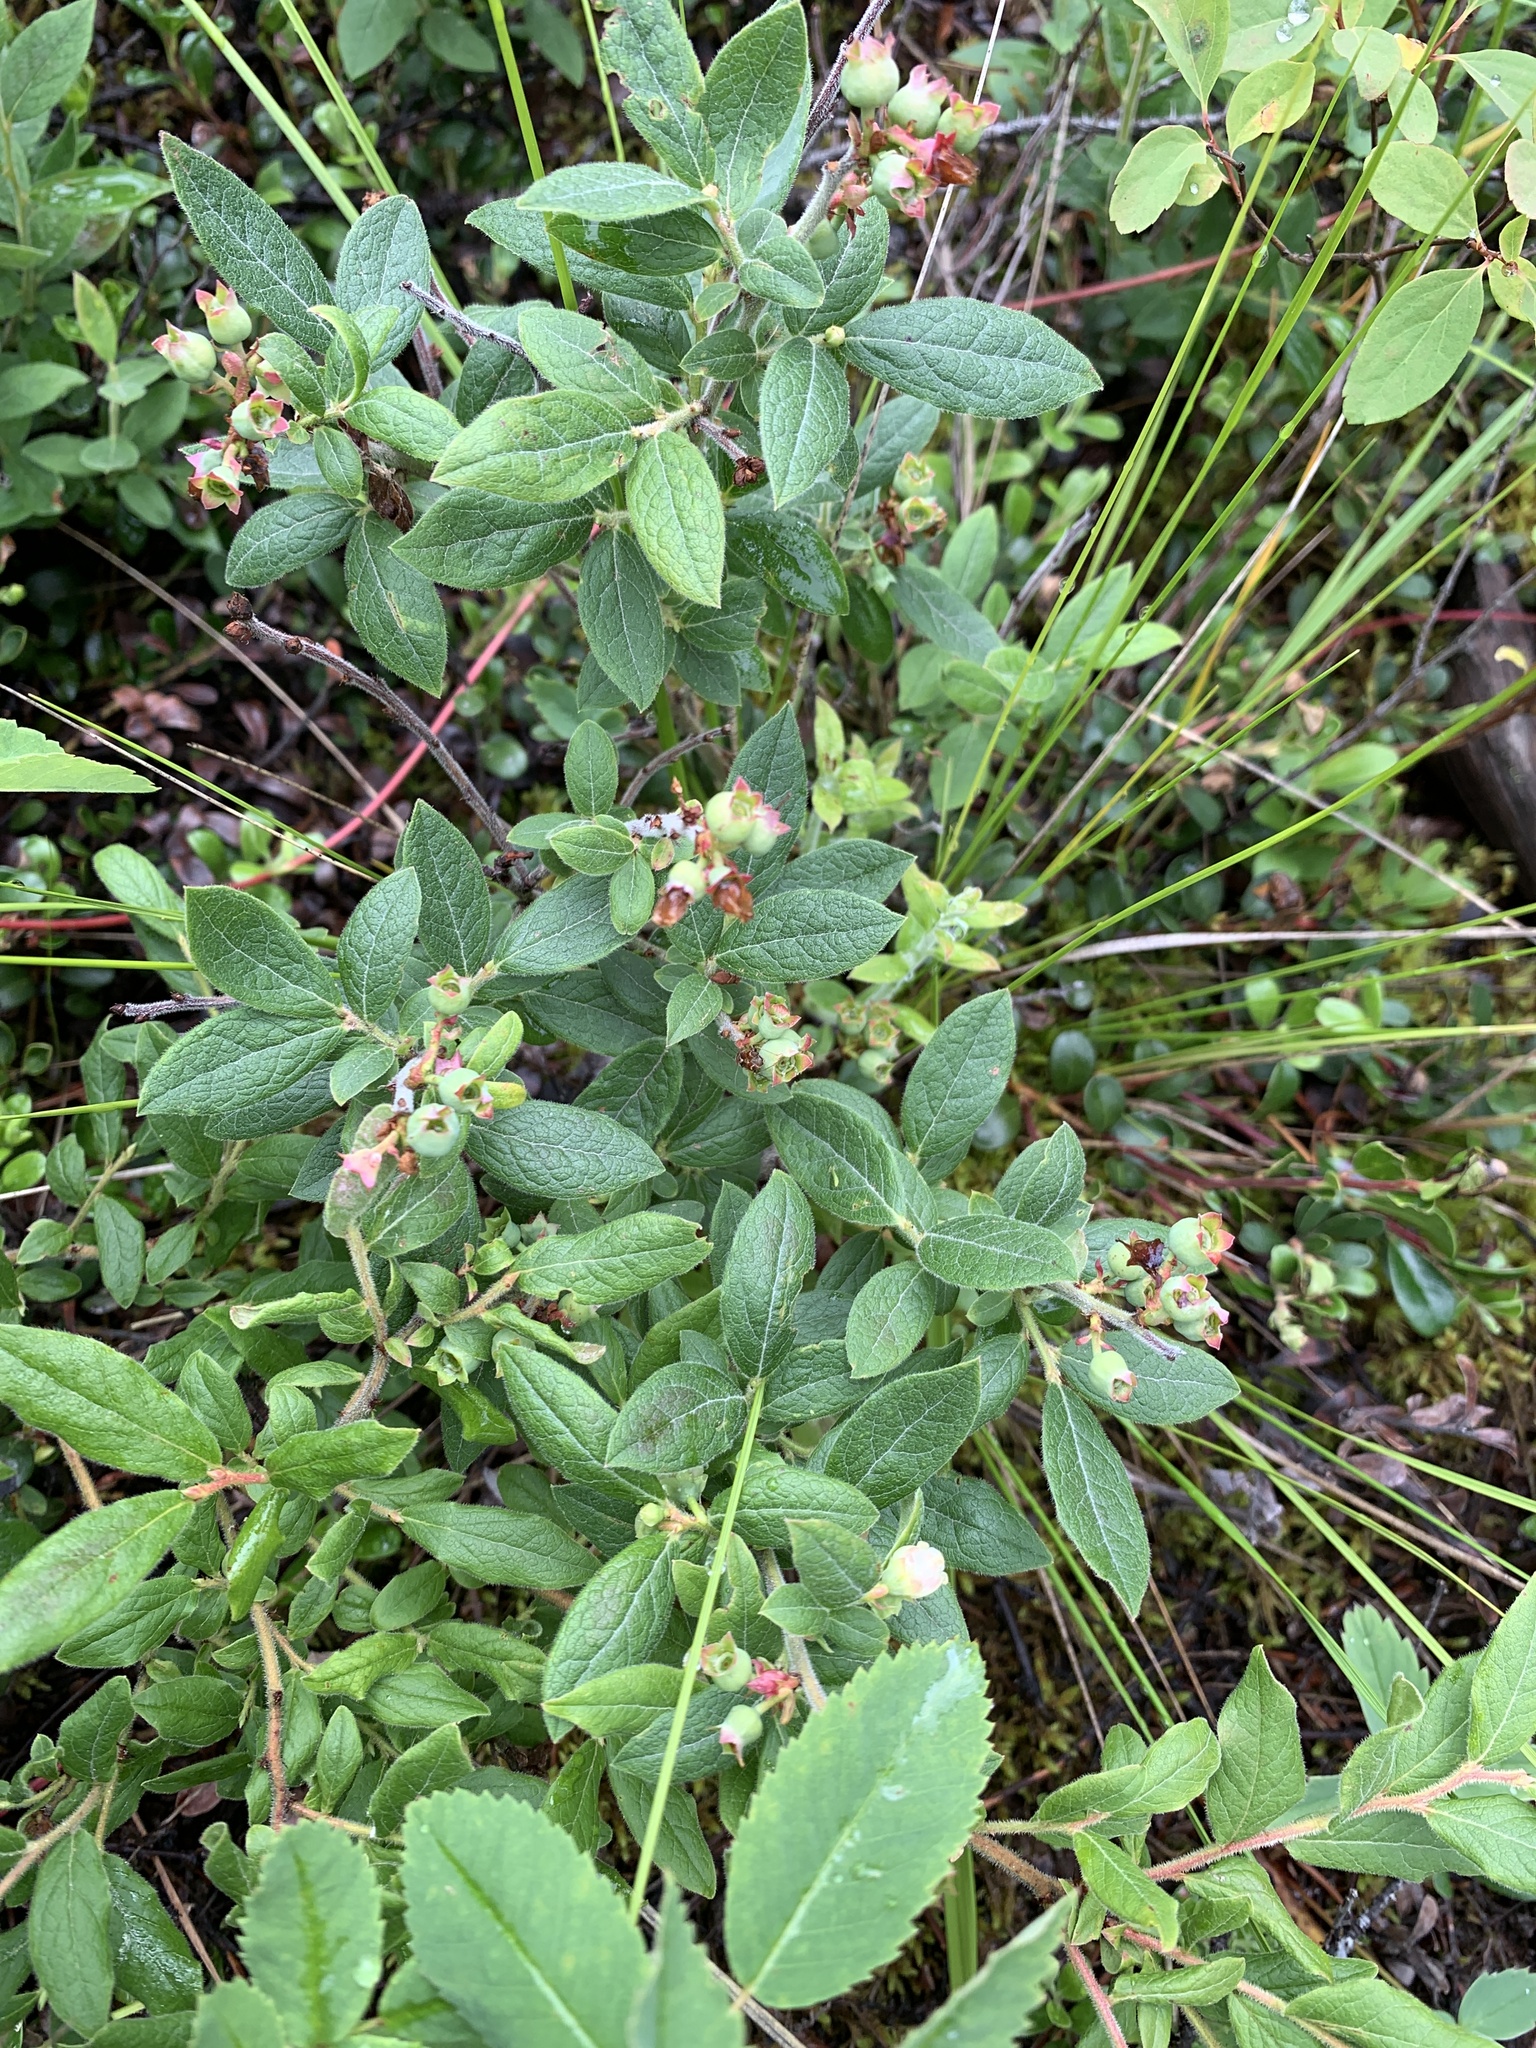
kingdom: Plantae
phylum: Tracheophyta
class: Magnoliopsida
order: Ericales
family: Ericaceae
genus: Vaccinium
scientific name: Vaccinium myrtilloides
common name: Canada blueberry
